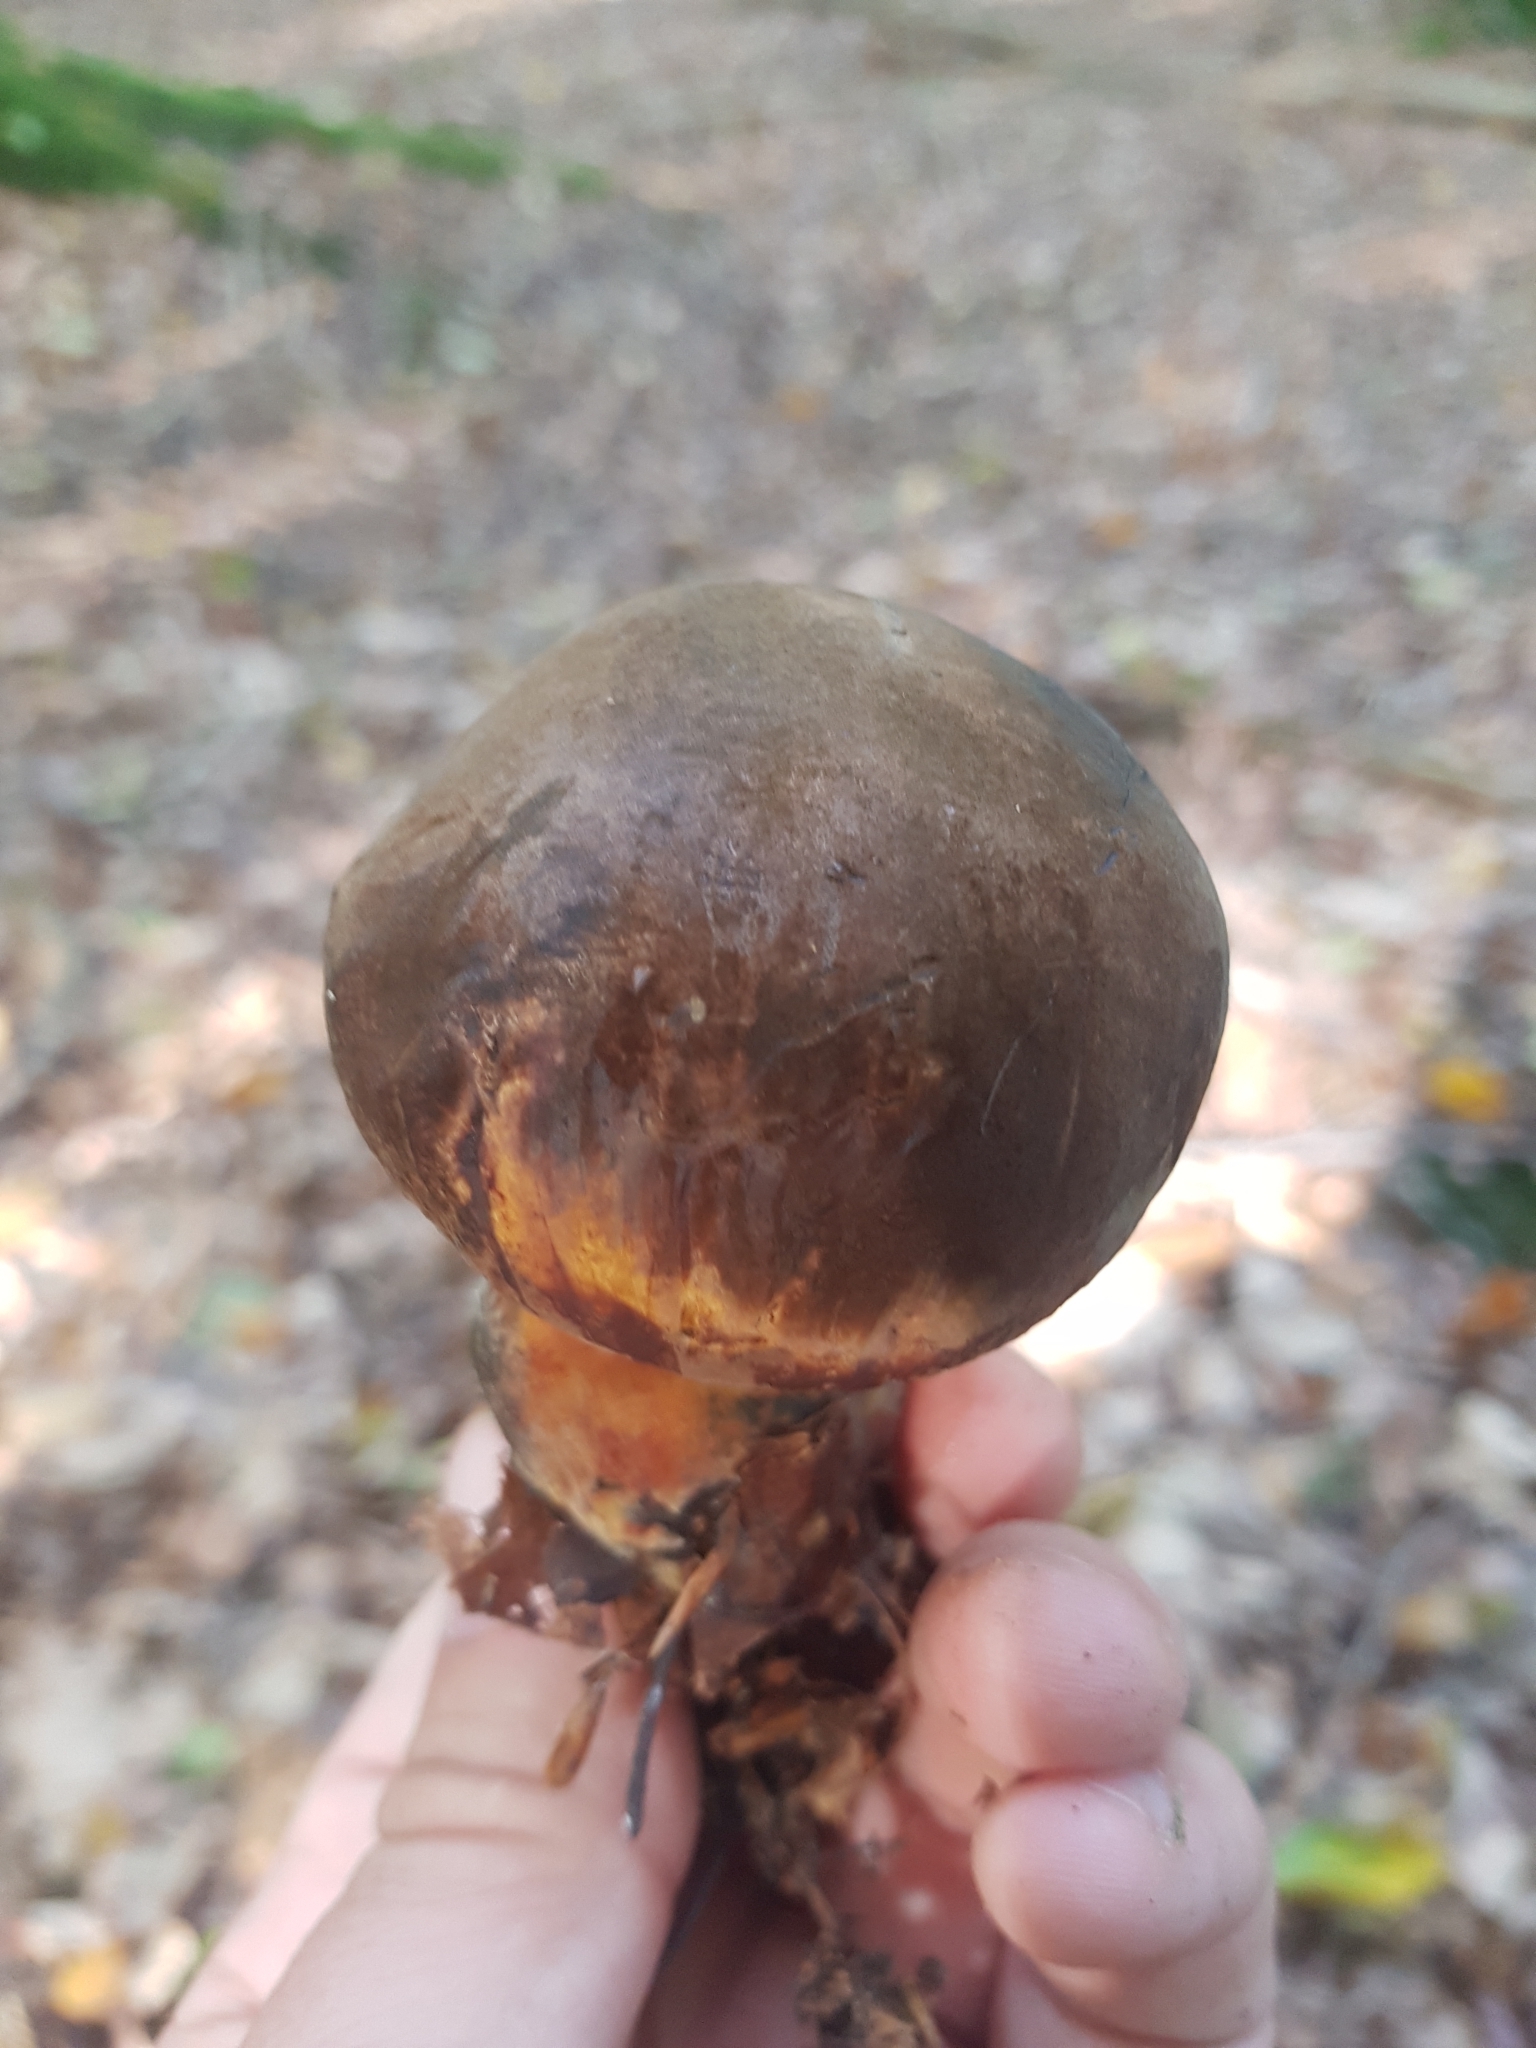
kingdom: Fungi
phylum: Basidiomycota
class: Agaricomycetes
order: Boletales
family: Boletaceae
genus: Neoboletus
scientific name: Neoboletus erythropus
